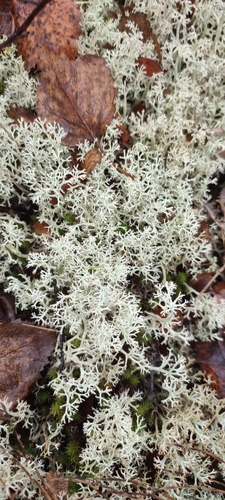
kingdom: Fungi
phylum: Ascomycota
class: Lecanoromycetes
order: Lecanorales
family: Cladoniaceae
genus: Cladonia
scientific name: Cladonia
